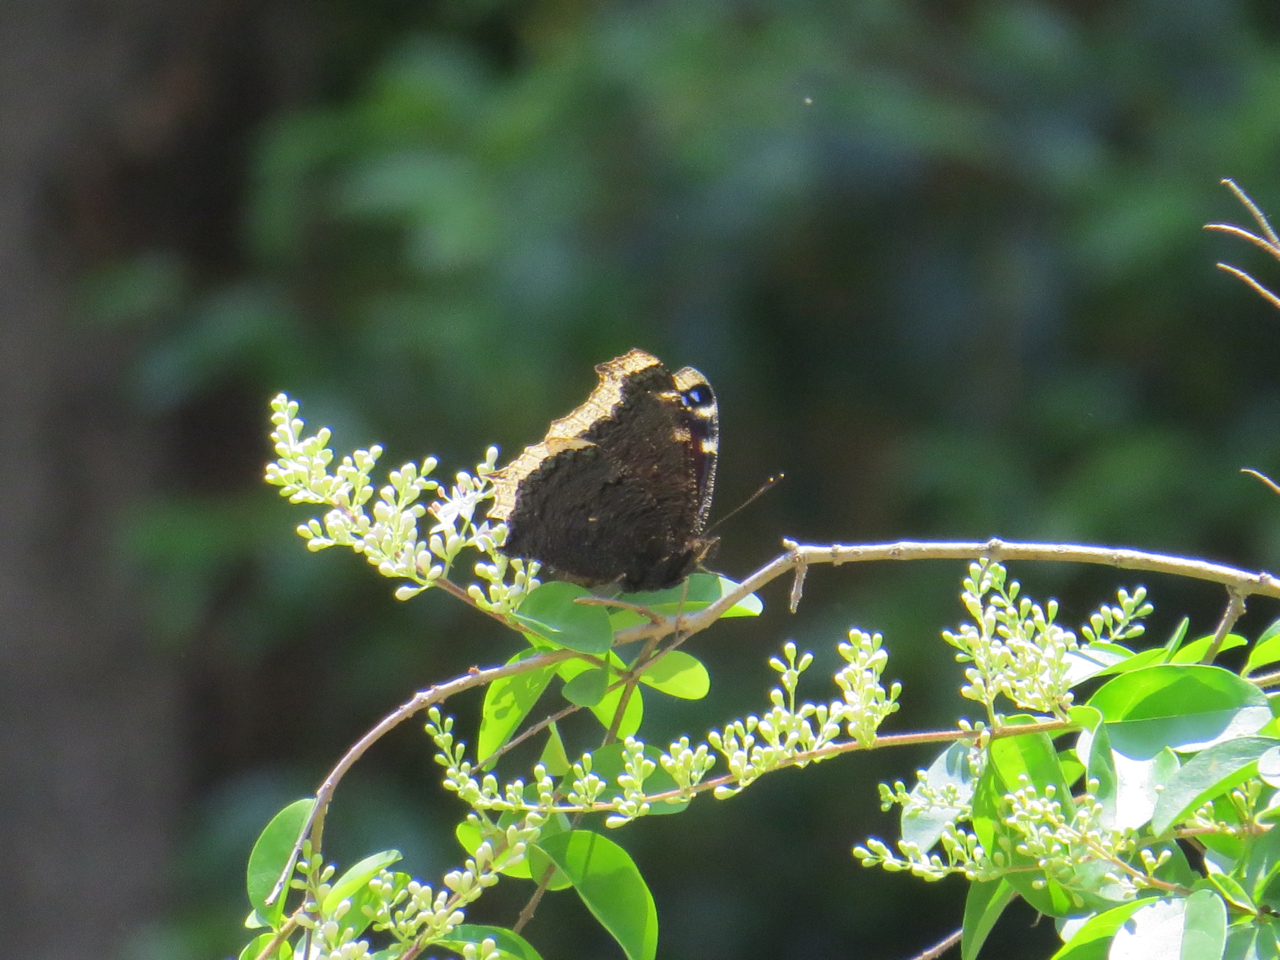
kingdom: Animalia
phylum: Arthropoda
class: Insecta
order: Lepidoptera
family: Nymphalidae
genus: Nymphalis
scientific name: Nymphalis antiopa
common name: Camberwell beauty
